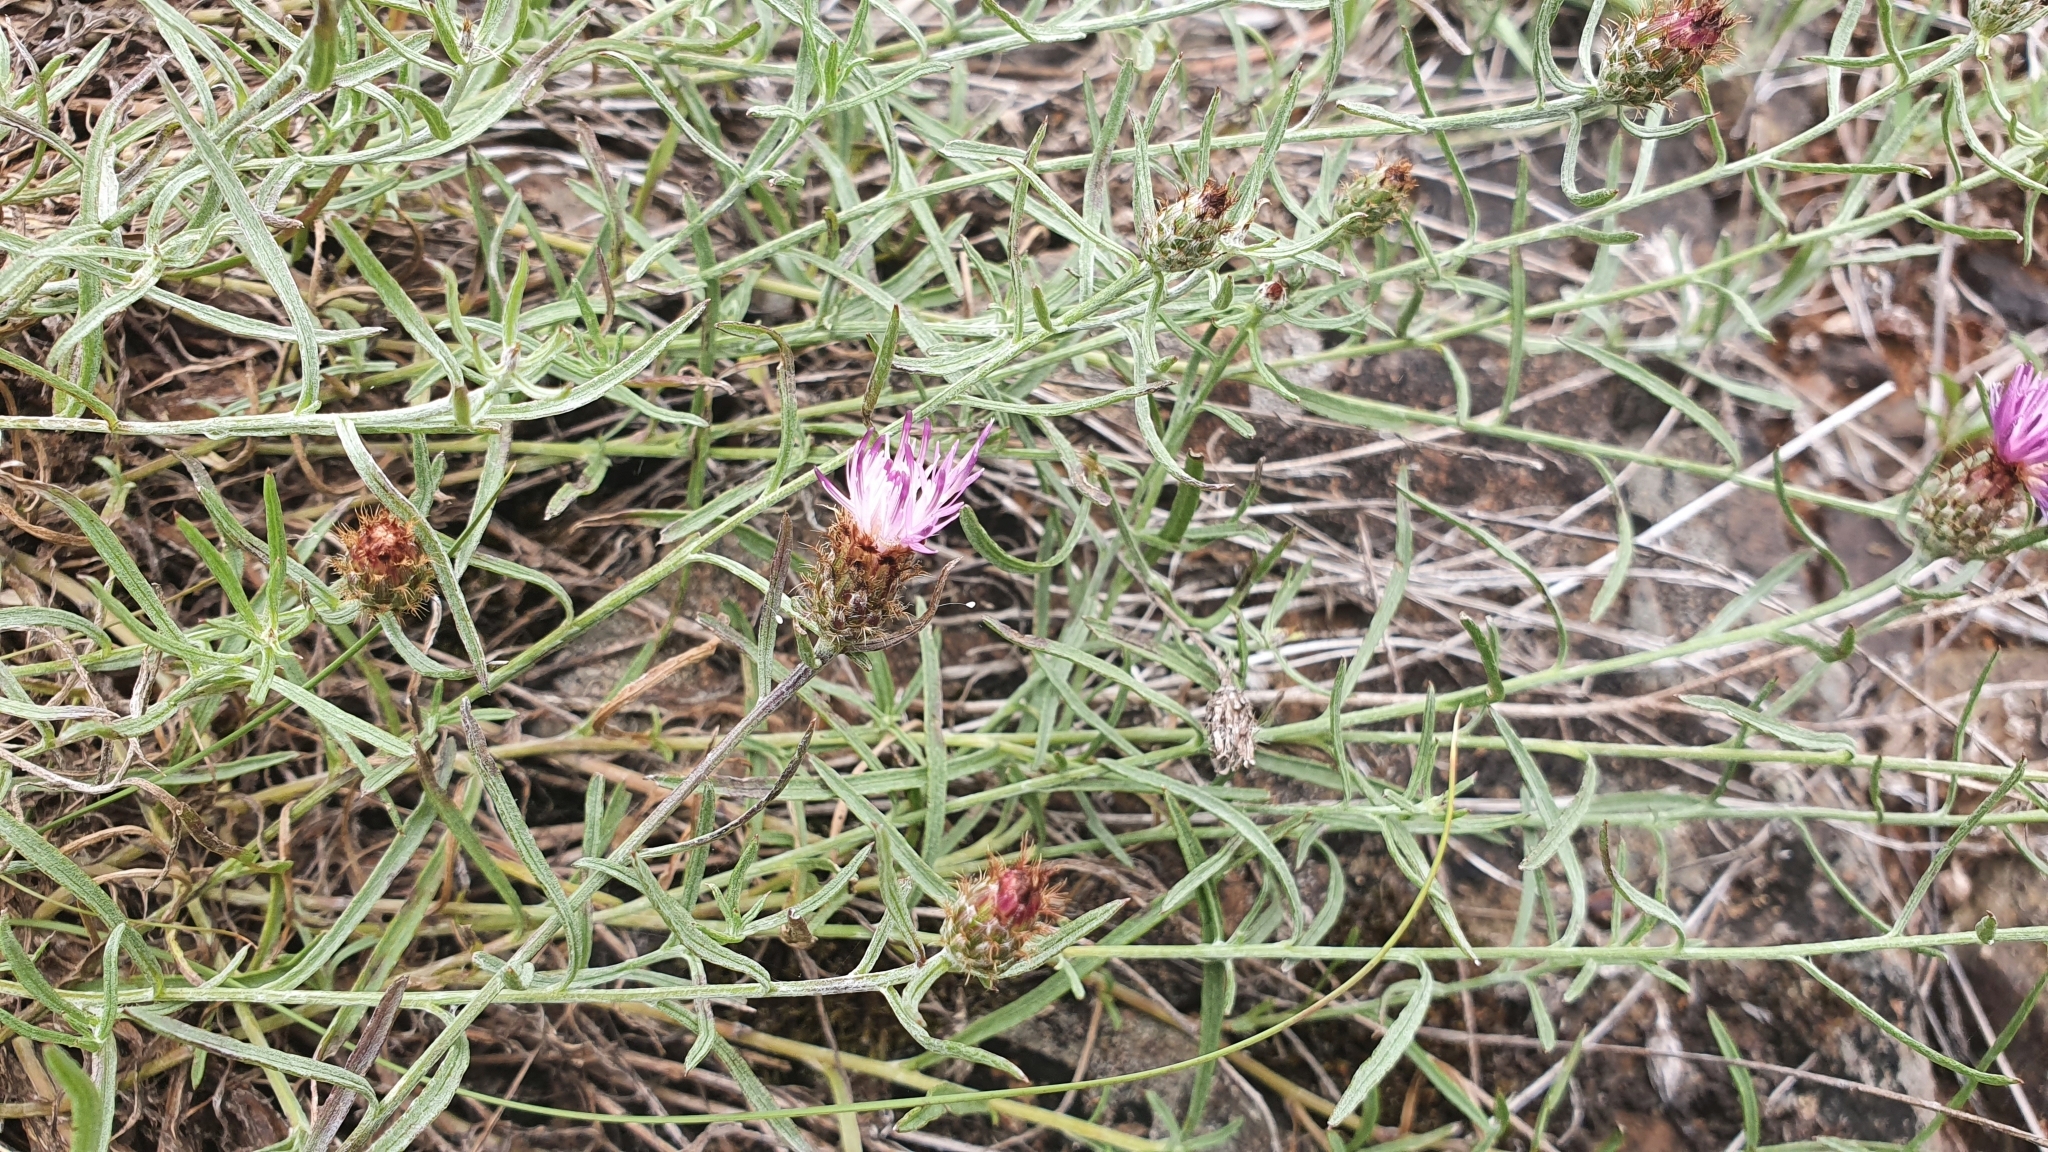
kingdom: Plantae
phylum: Tracheophyta
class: Magnoliopsida
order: Asterales
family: Asteraceae
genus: Centaurea
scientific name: Centaurea gallaecica
